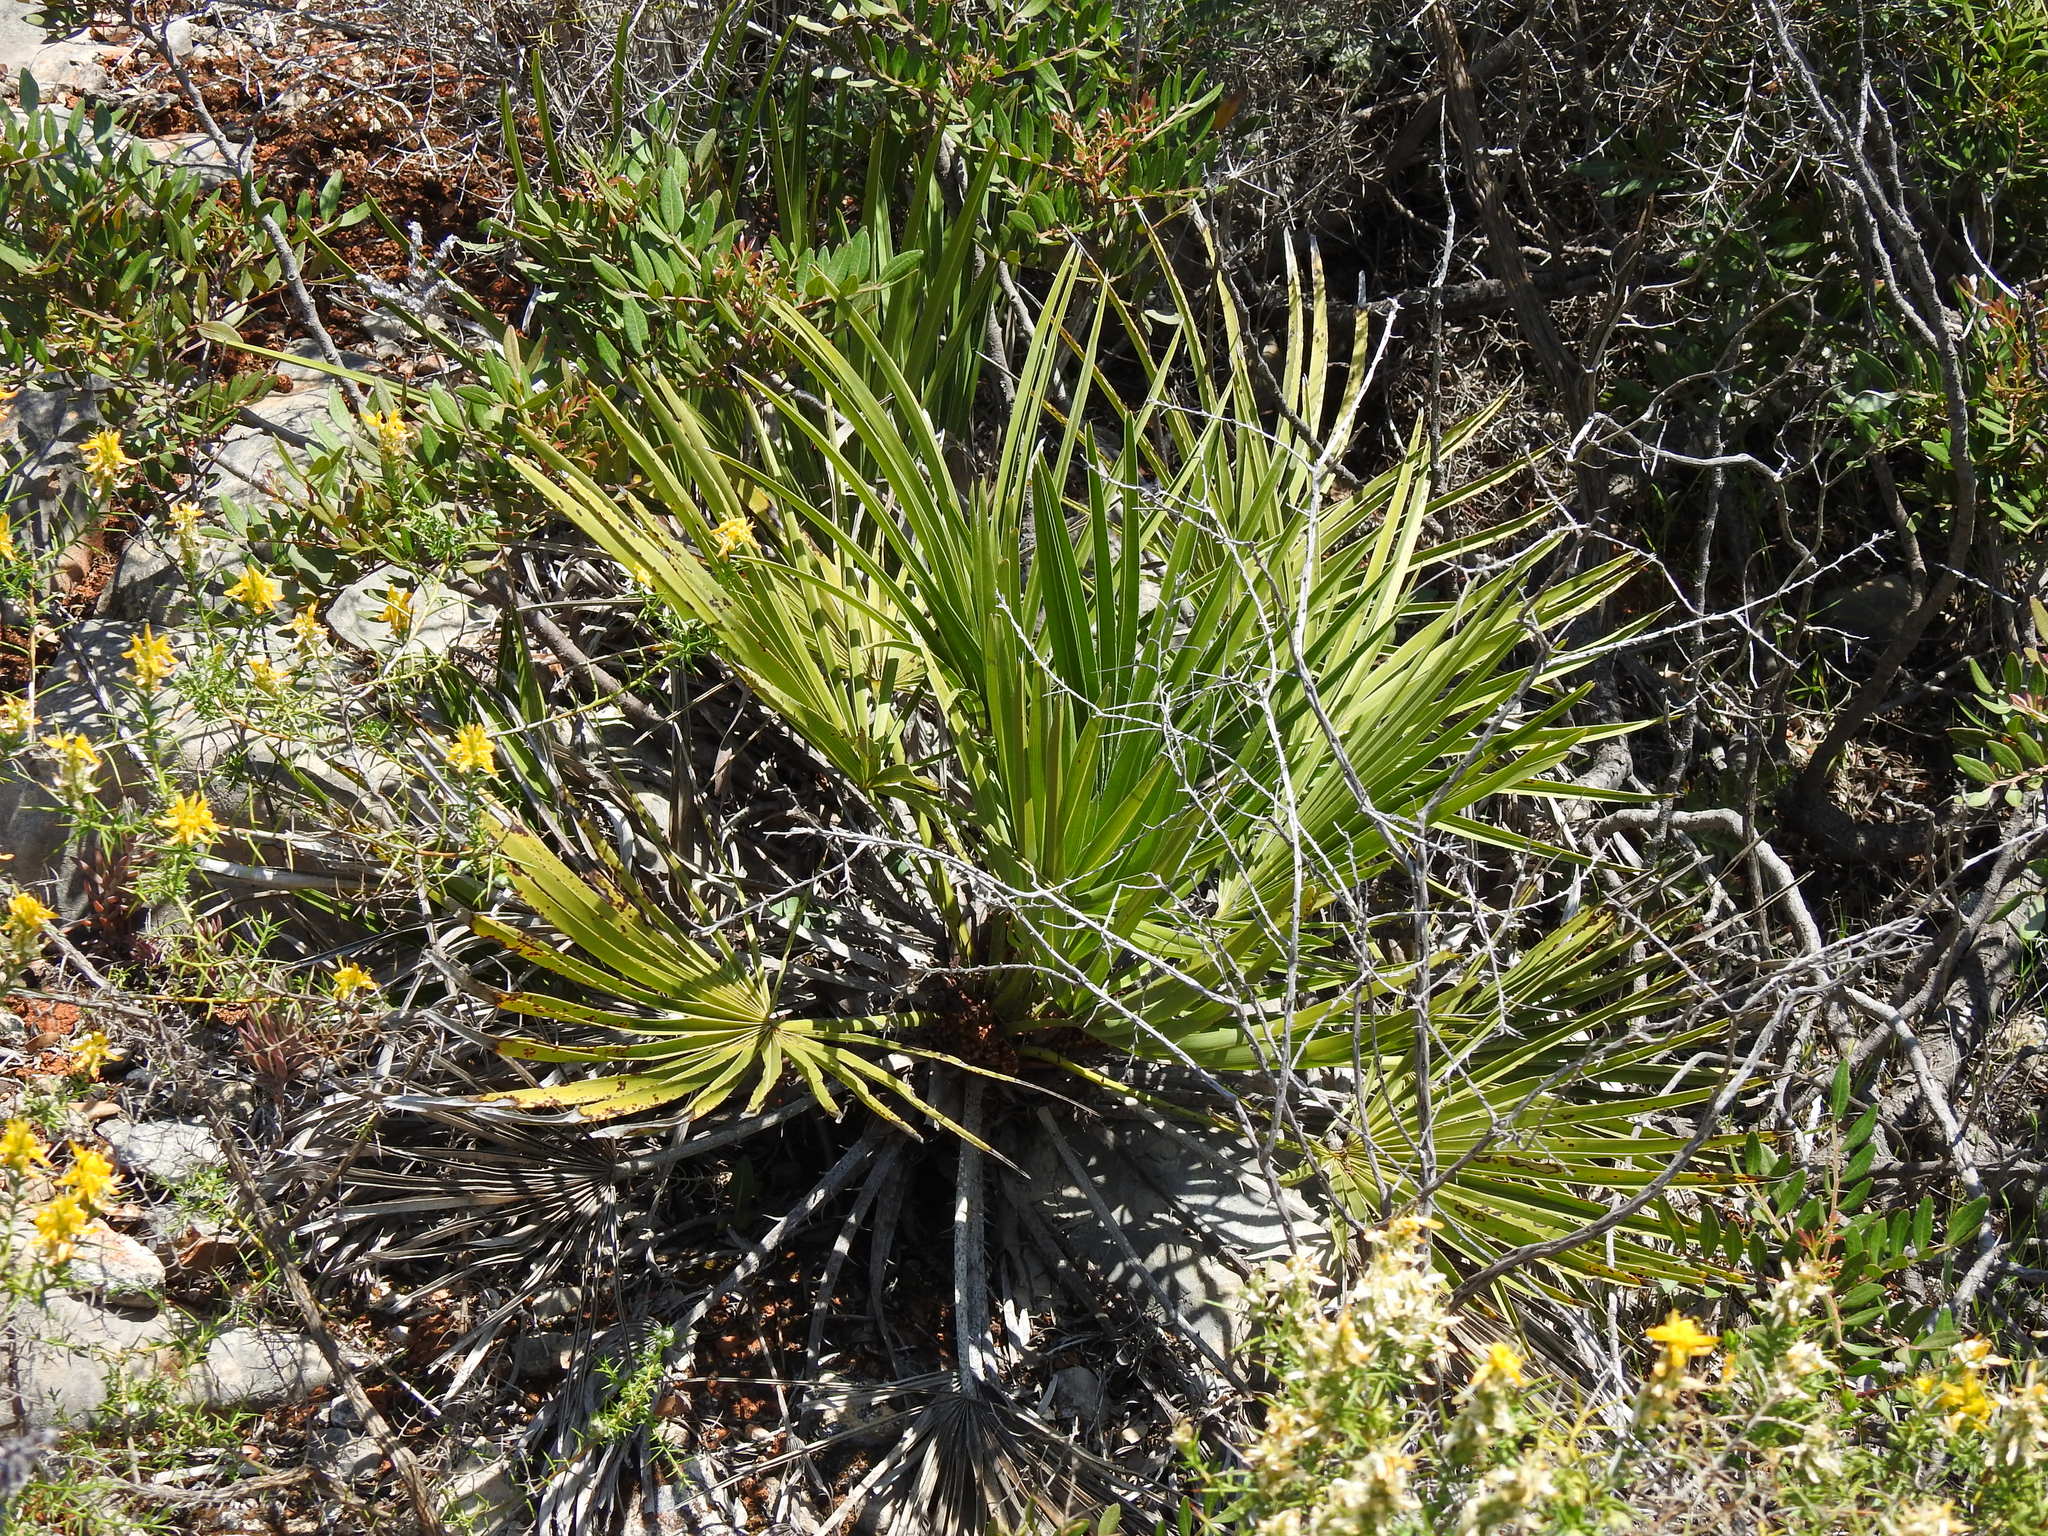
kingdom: Plantae
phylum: Tracheophyta
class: Liliopsida
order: Arecales
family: Arecaceae
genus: Chamaerops
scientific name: Chamaerops humilis
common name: Dwarf fan palm
